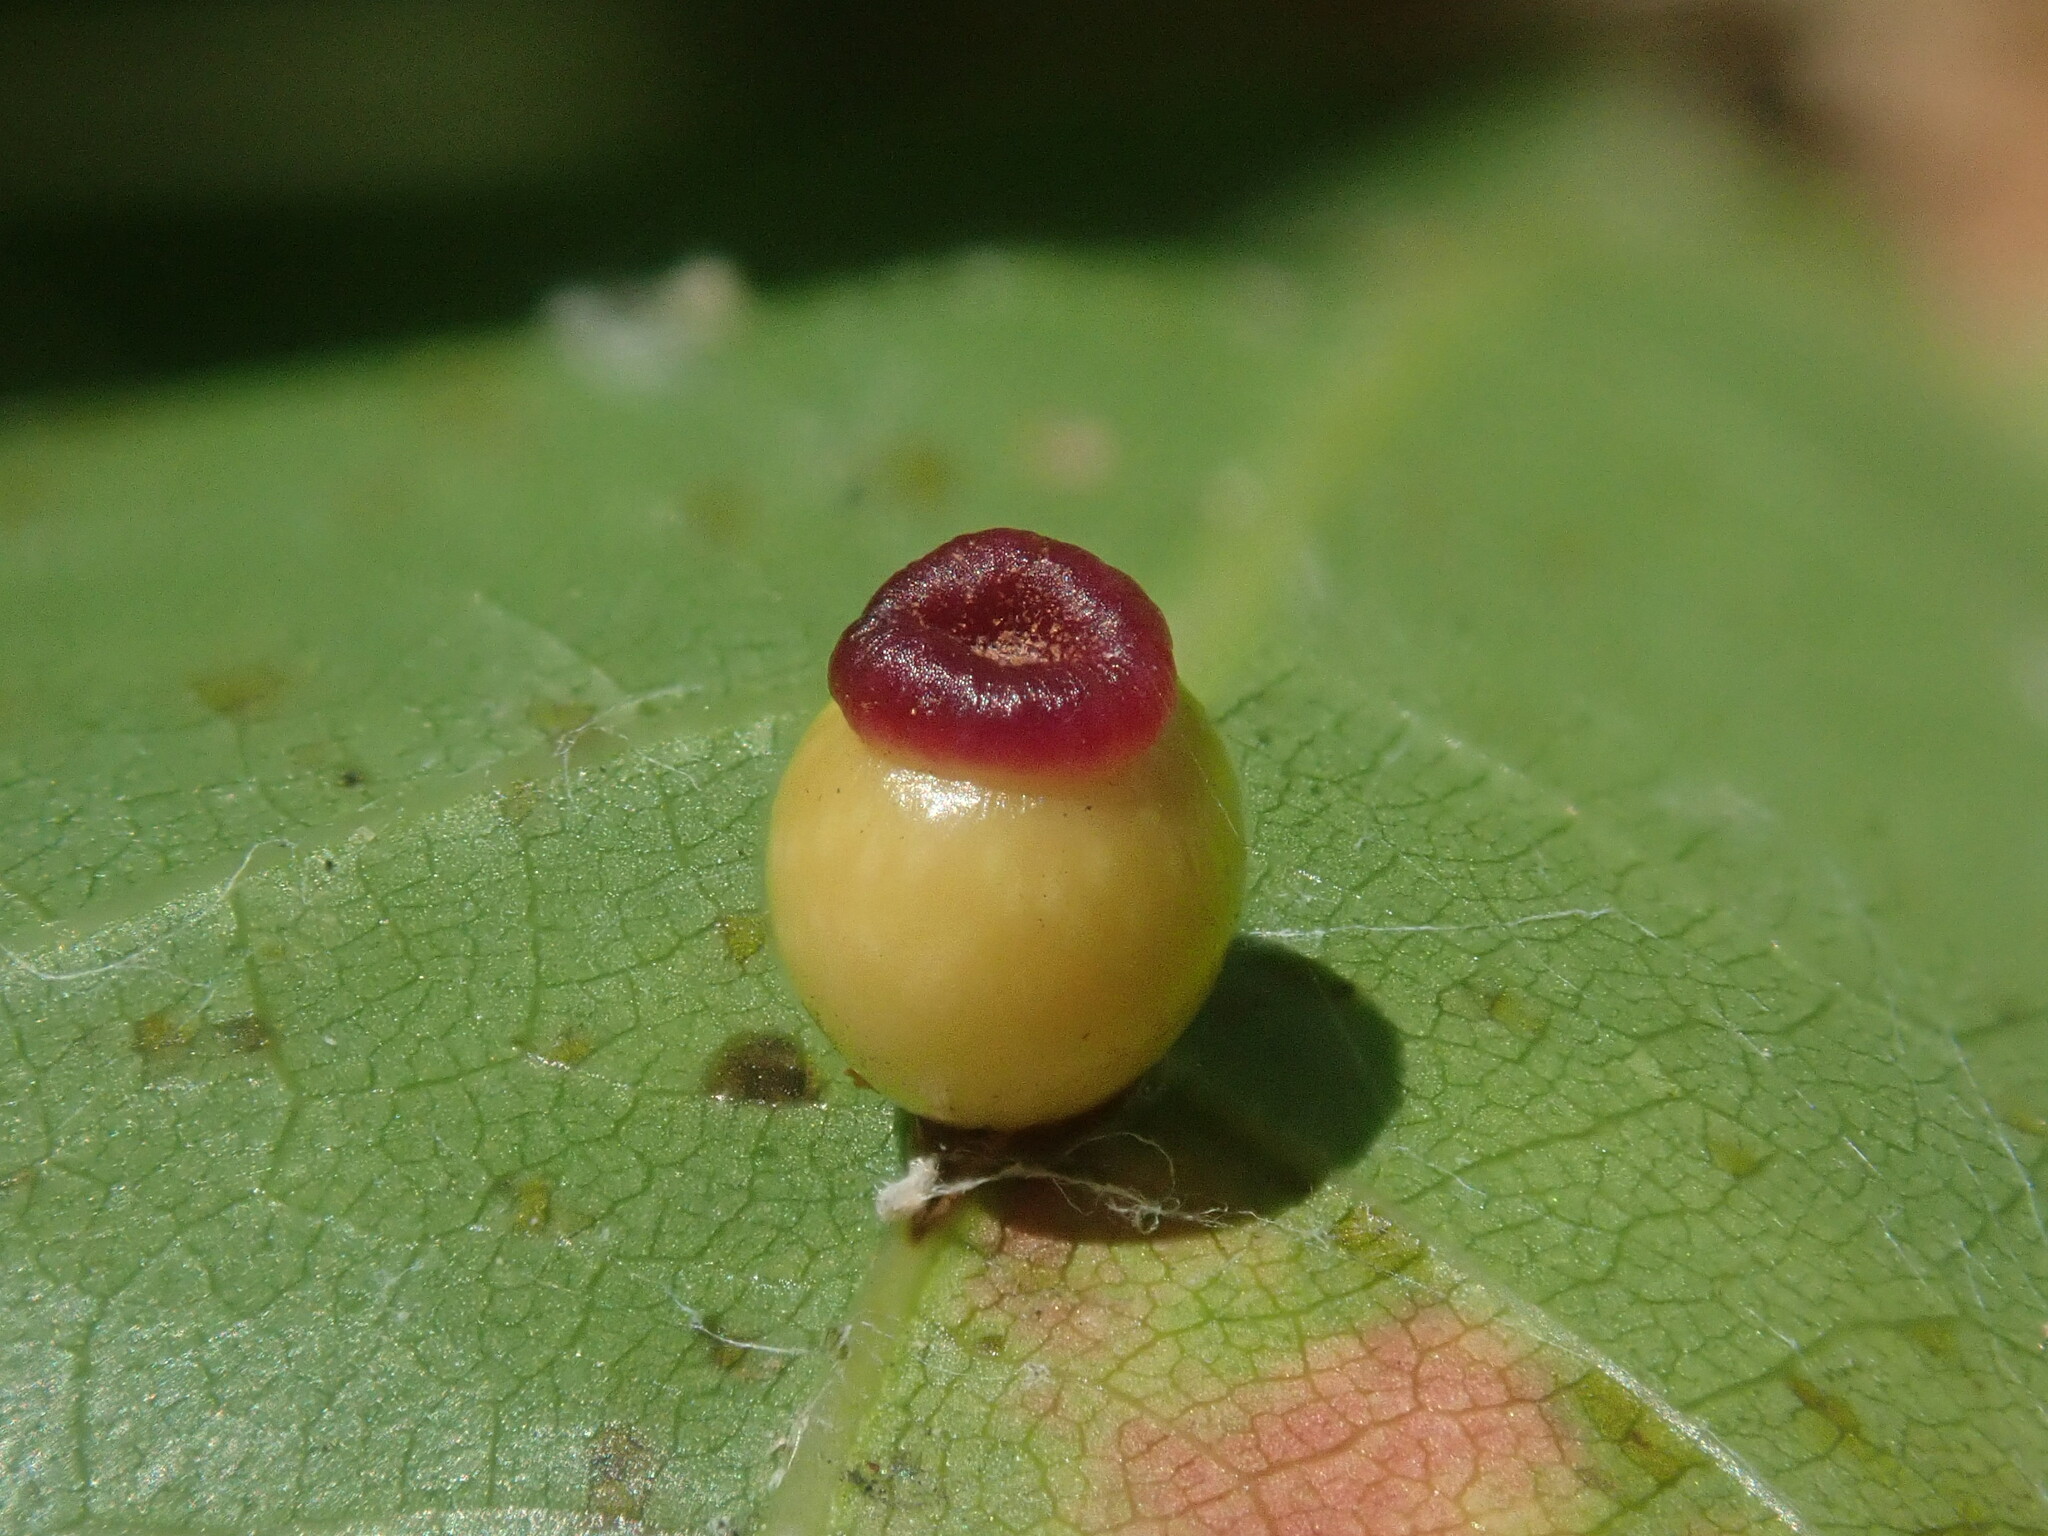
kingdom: Animalia
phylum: Arthropoda
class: Insecta
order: Hymenoptera
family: Cynipidae
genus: Kokkocynips
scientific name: Kokkocynips rileyi
